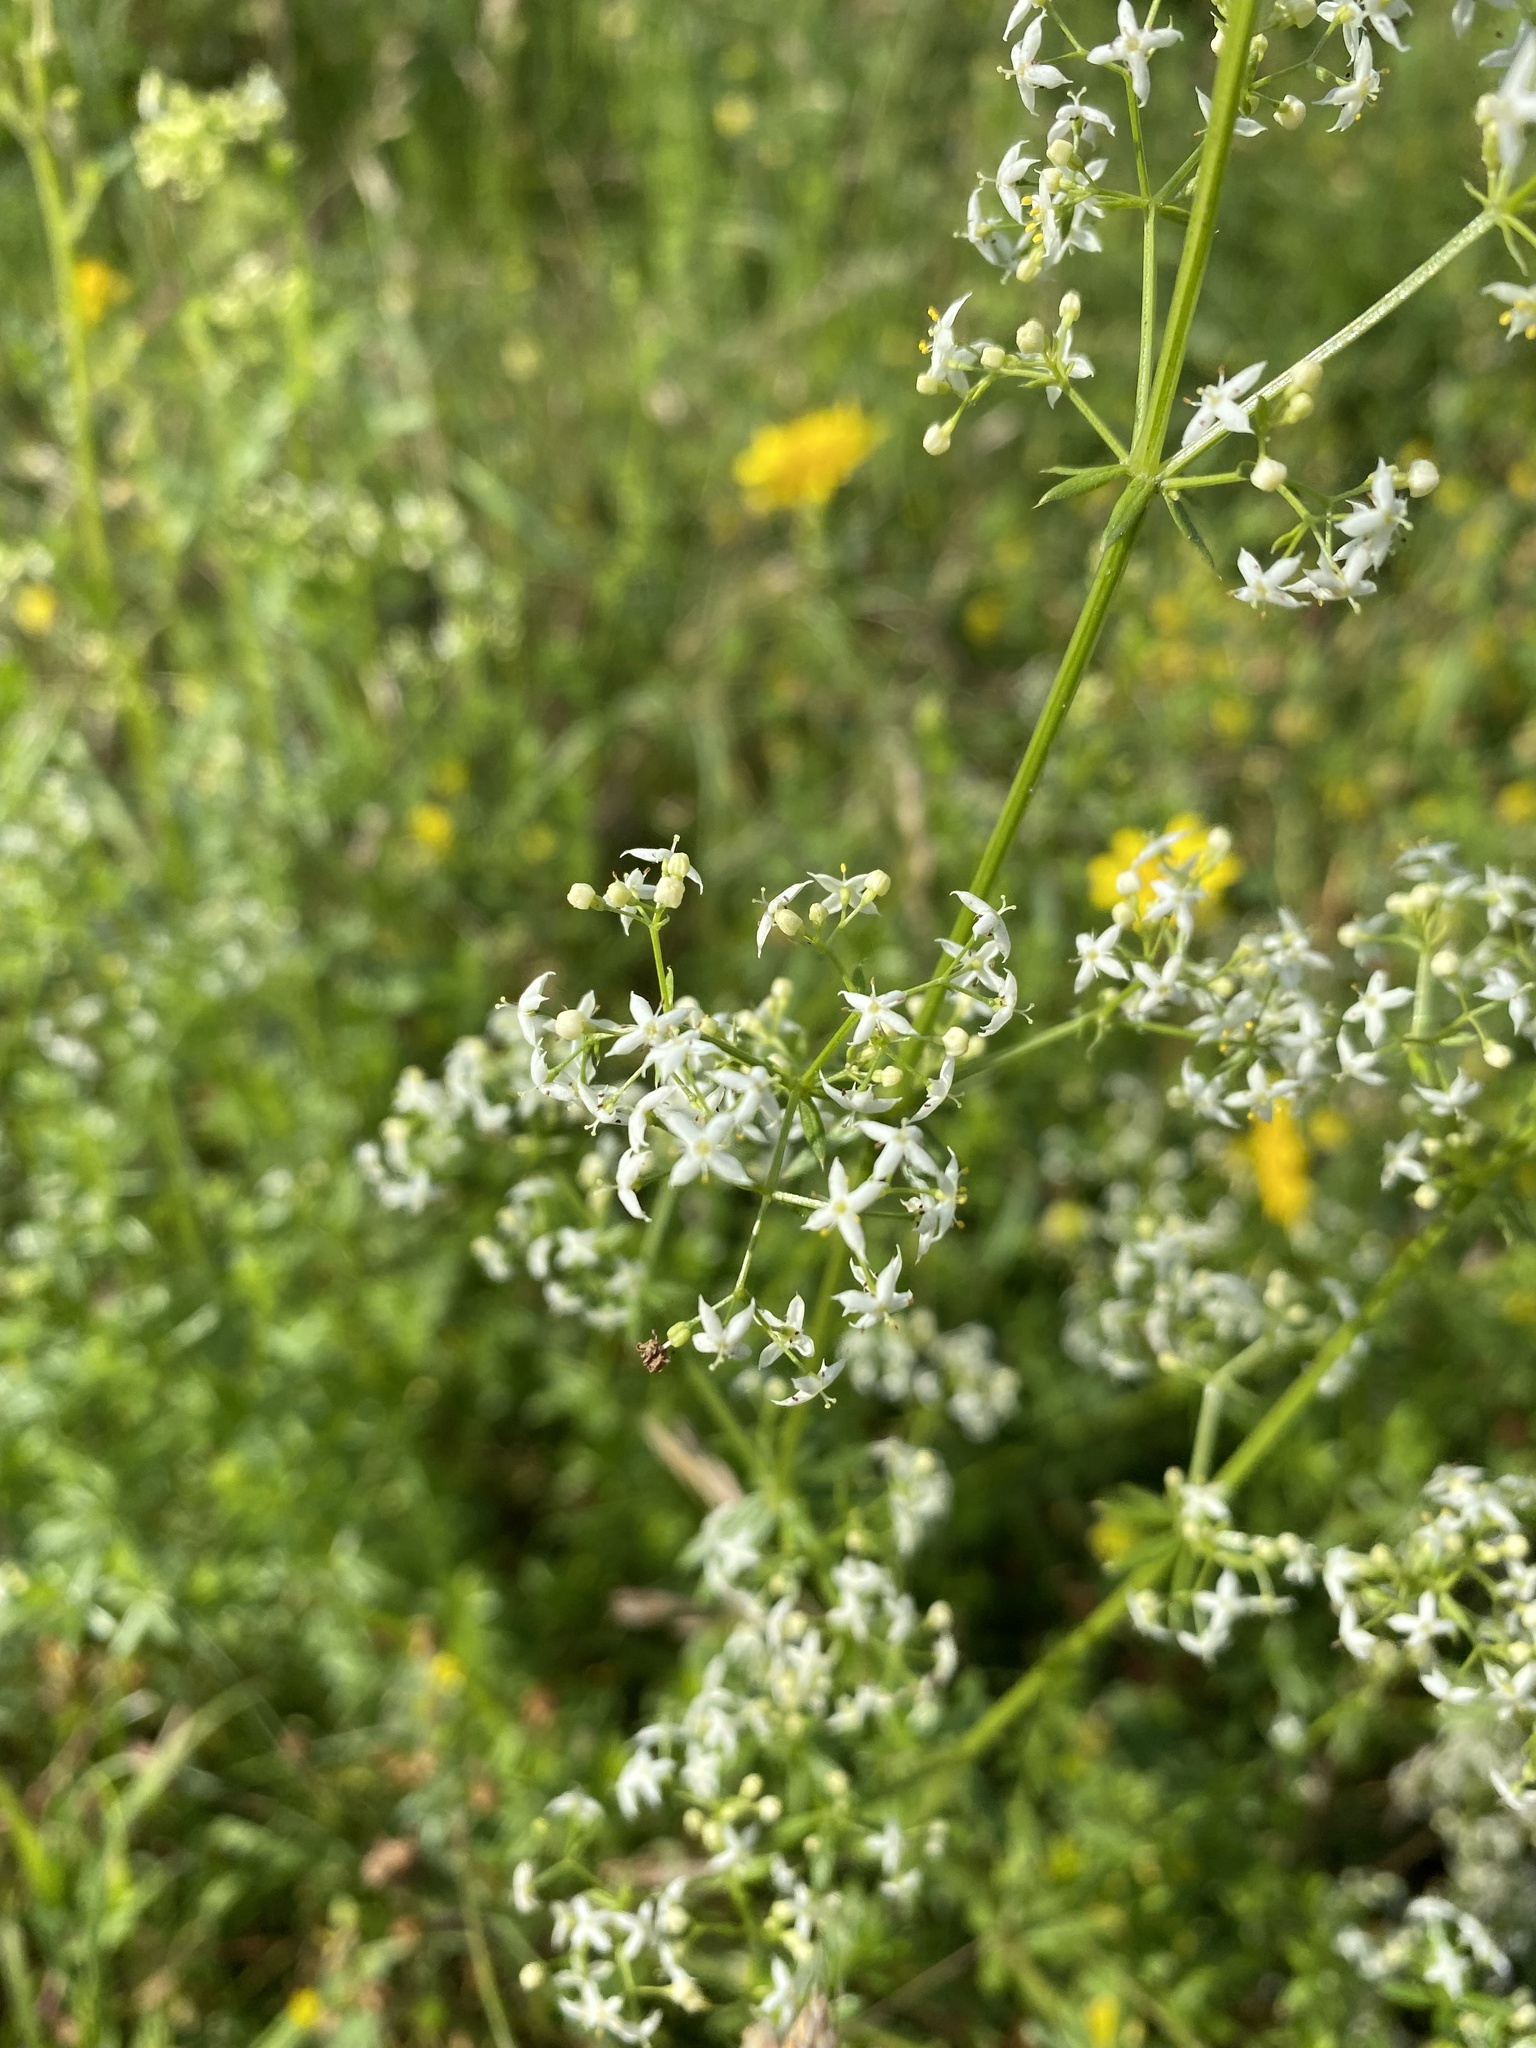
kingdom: Plantae
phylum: Tracheophyta
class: Magnoliopsida
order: Gentianales
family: Rubiaceae
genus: Galium
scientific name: Galium album
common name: White bedstraw
